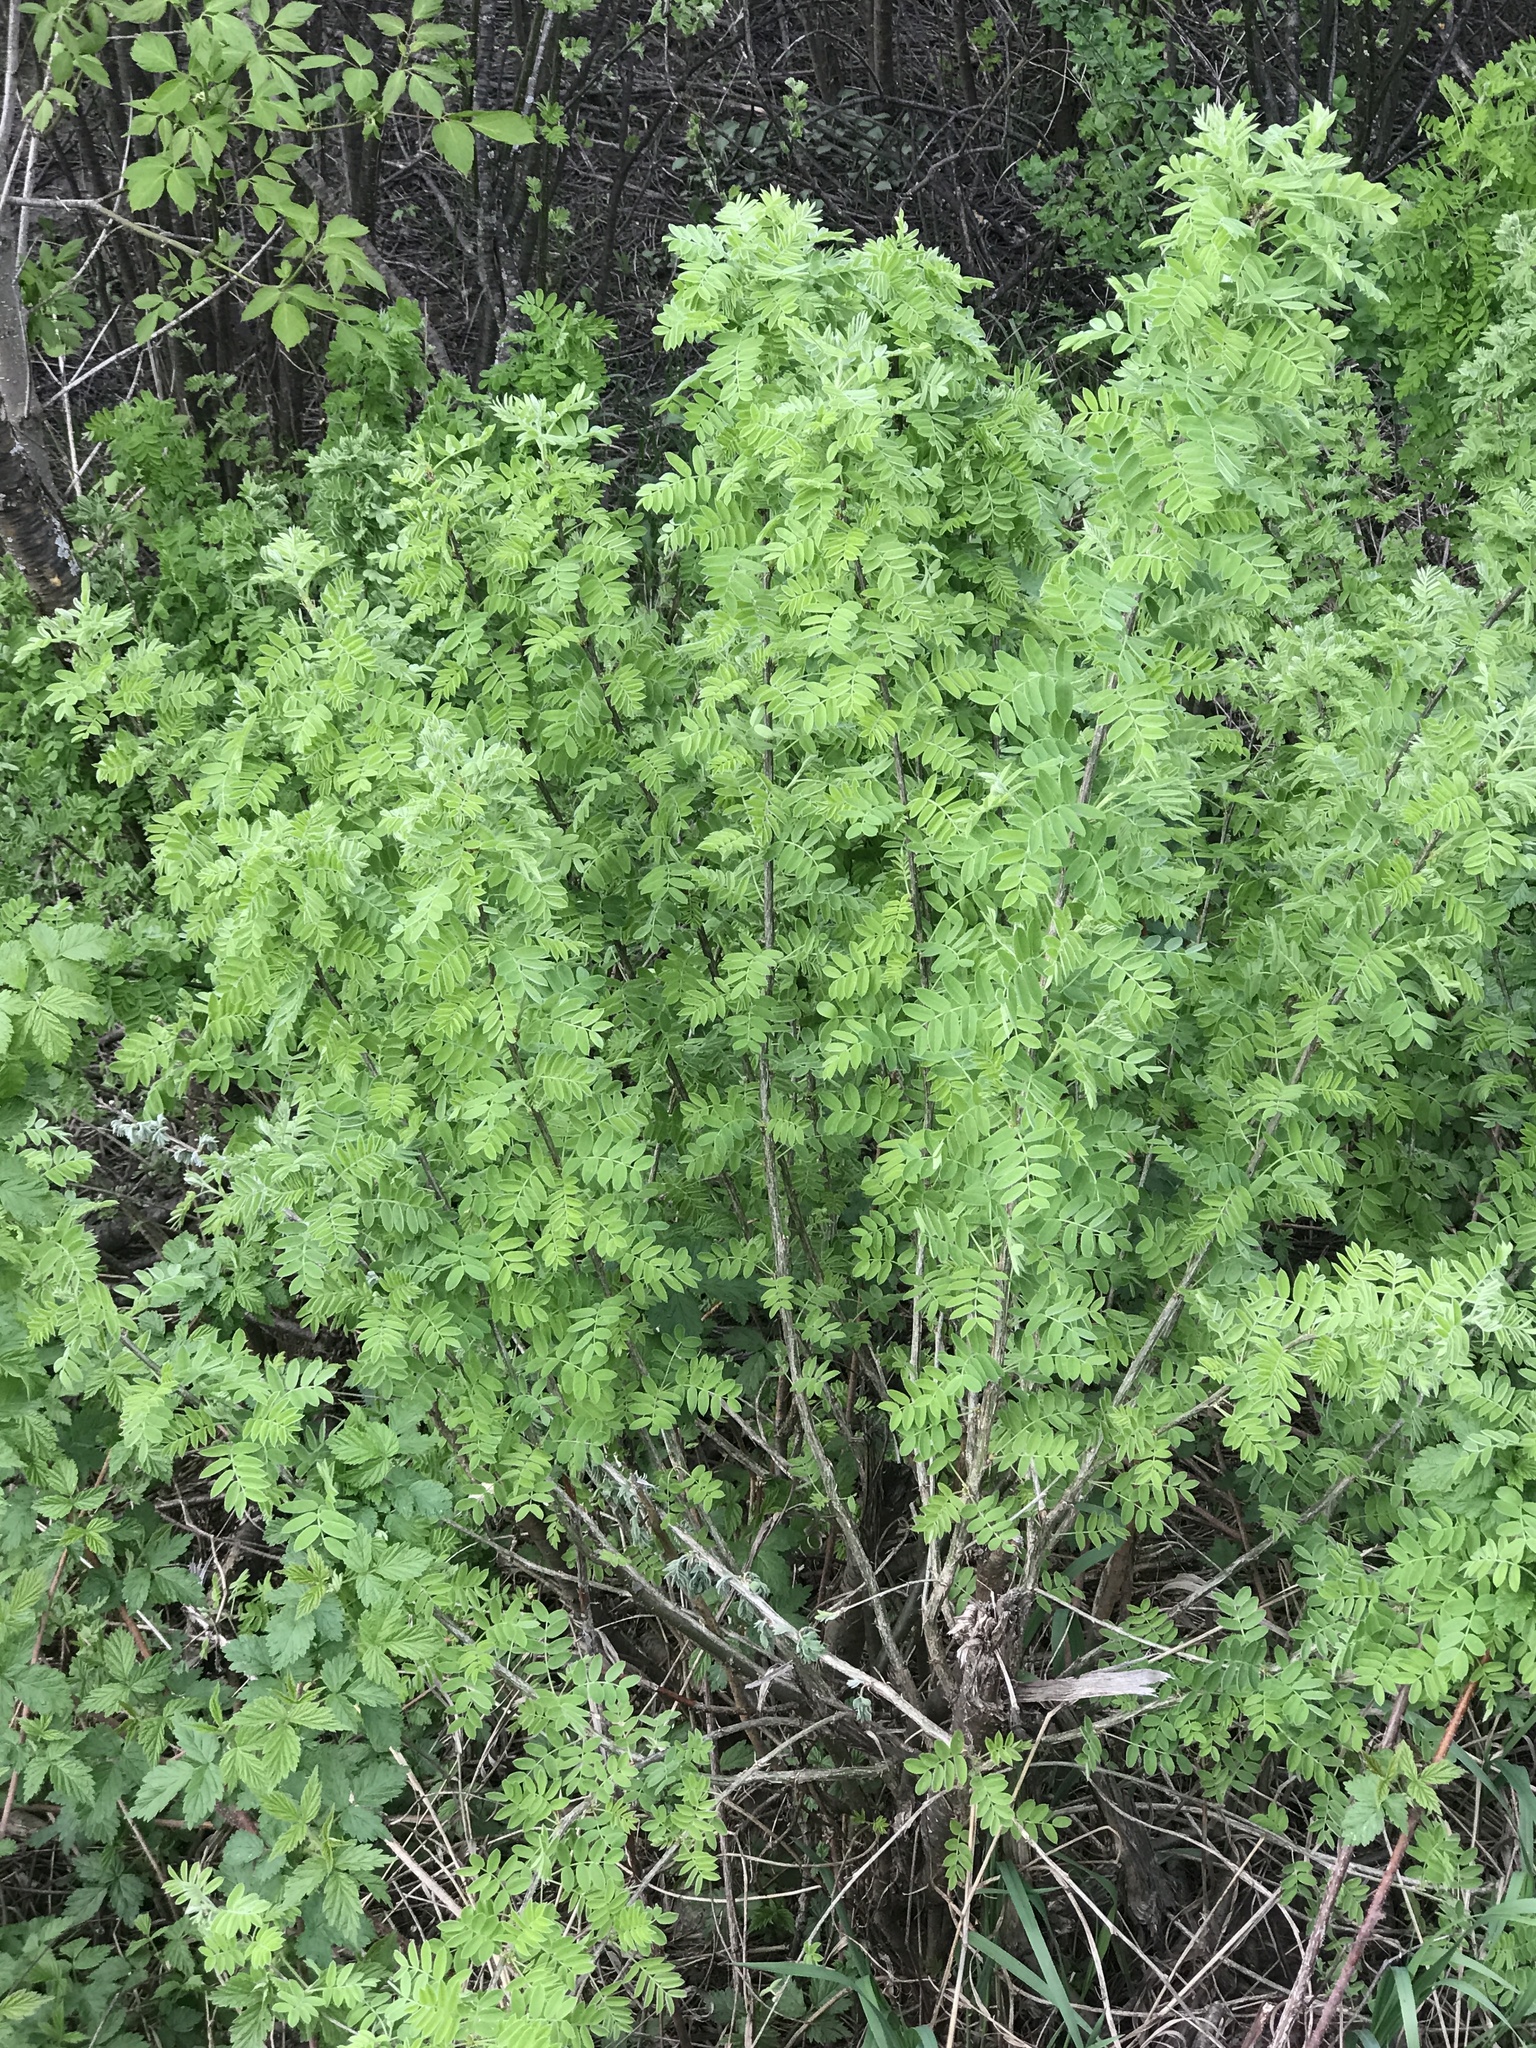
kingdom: Plantae
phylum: Tracheophyta
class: Magnoliopsida
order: Fabales
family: Fabaceae
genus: Caragana
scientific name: Caragana arborescens
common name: Siberian peashrub
